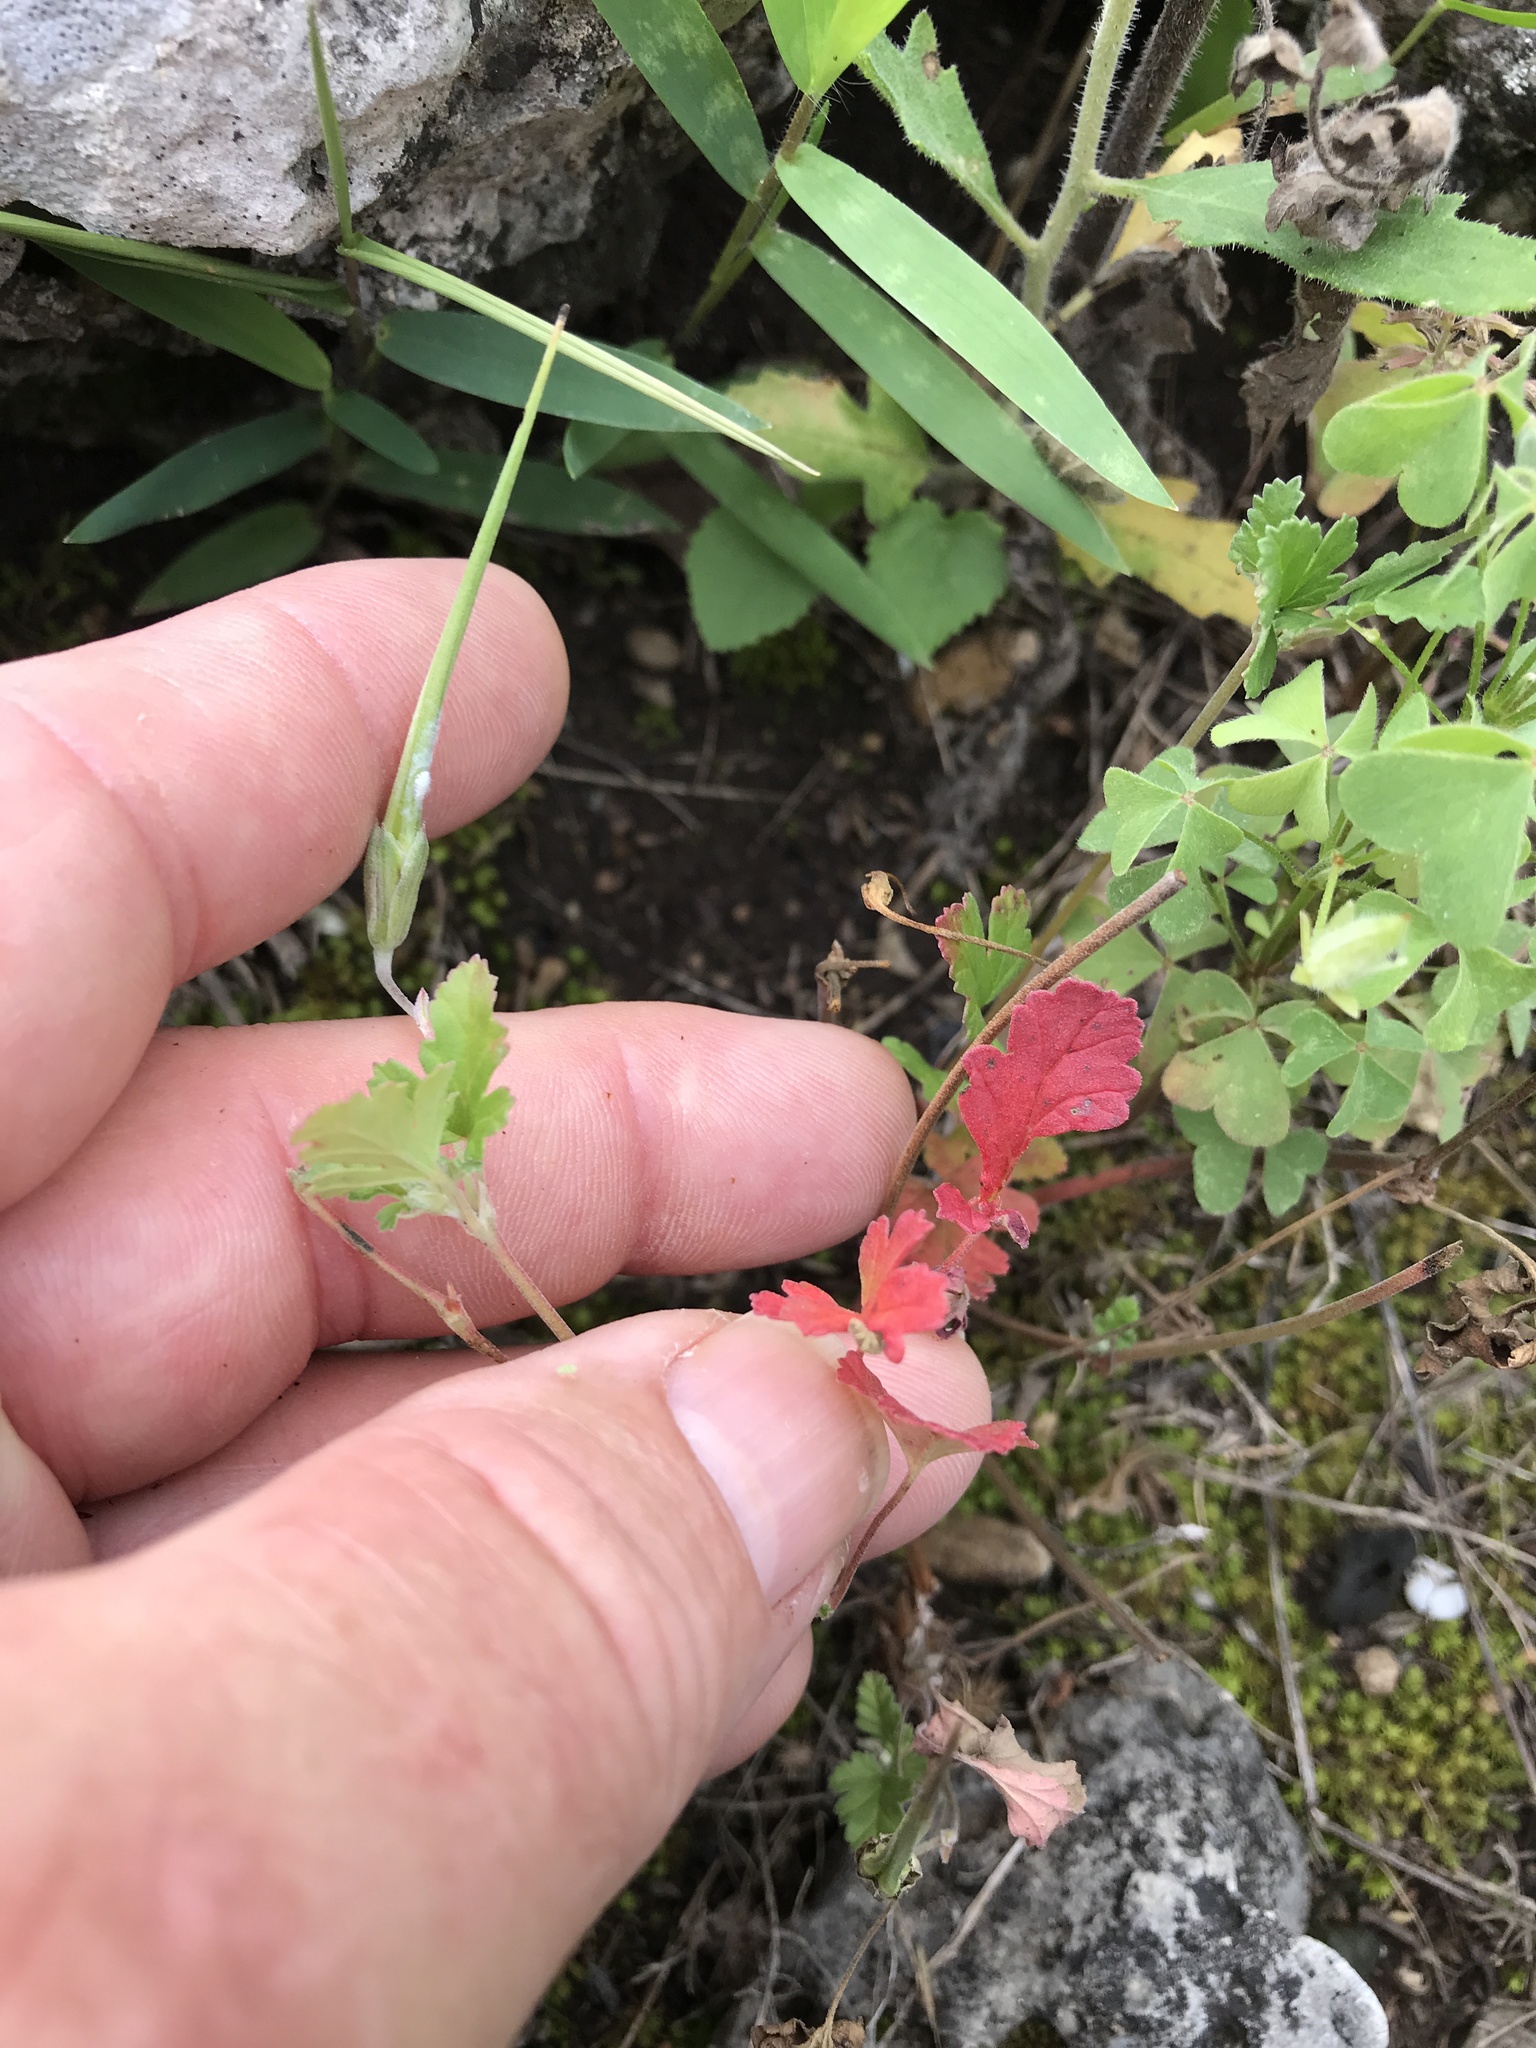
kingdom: Plantae
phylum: Tracheophyta
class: Magnoliopsida
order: Geraniales
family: Geraniaceae
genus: Erodium
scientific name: Erodium texanum
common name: Texas stork's-bill
